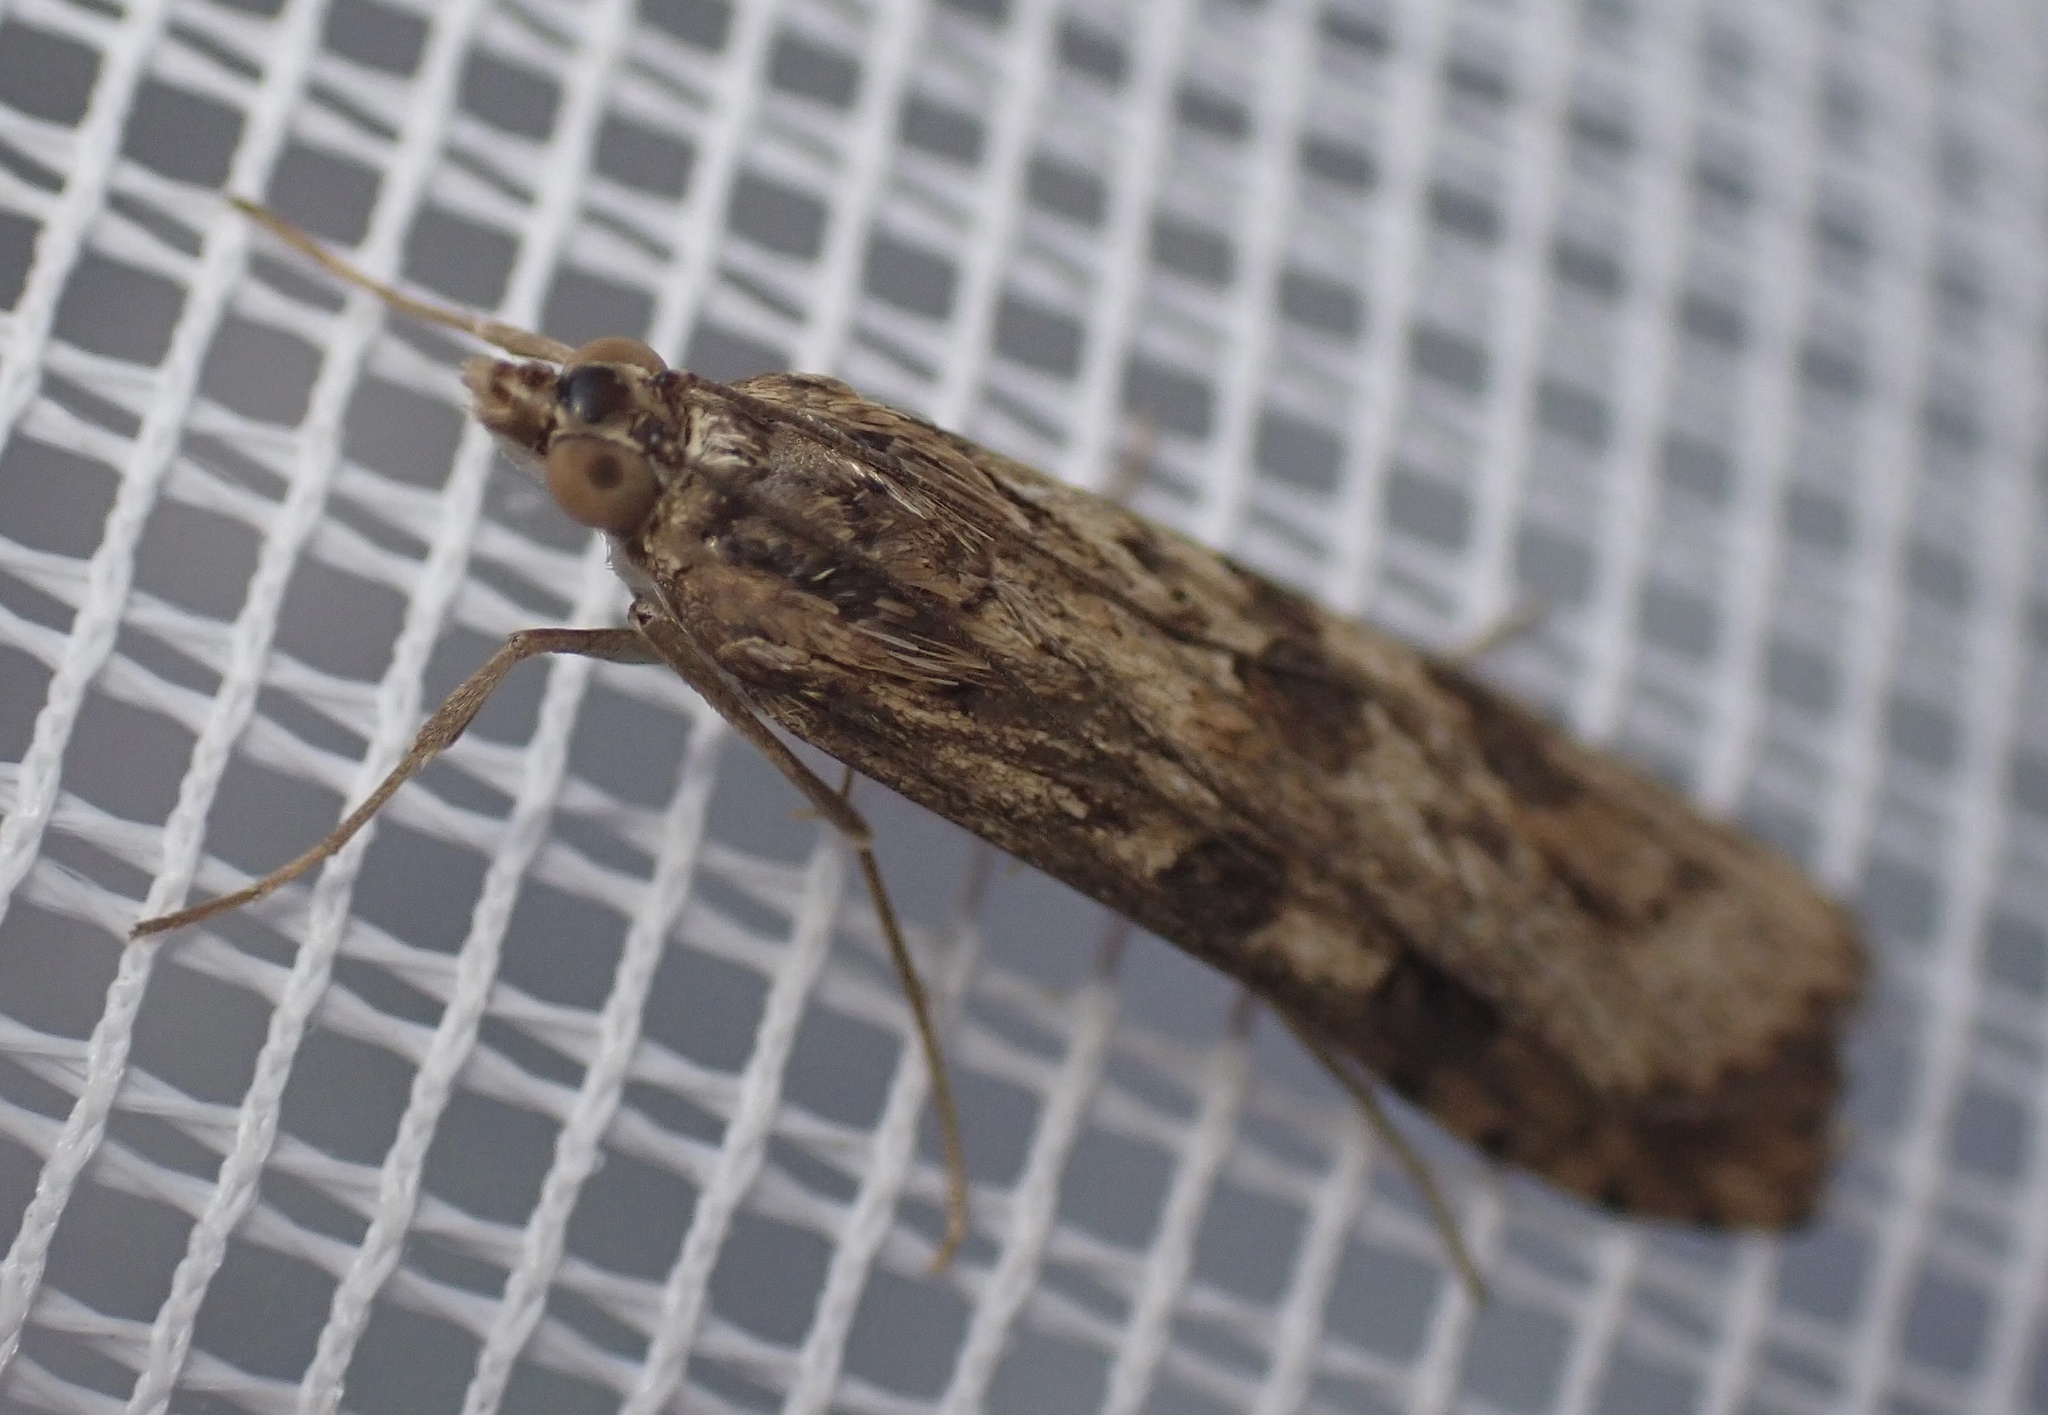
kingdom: Animalia
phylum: Arthropoda
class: Insecta
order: Lepidoptera
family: Crambidae
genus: Nomophila
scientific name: Nomophila noctuella
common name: Rush veneer
